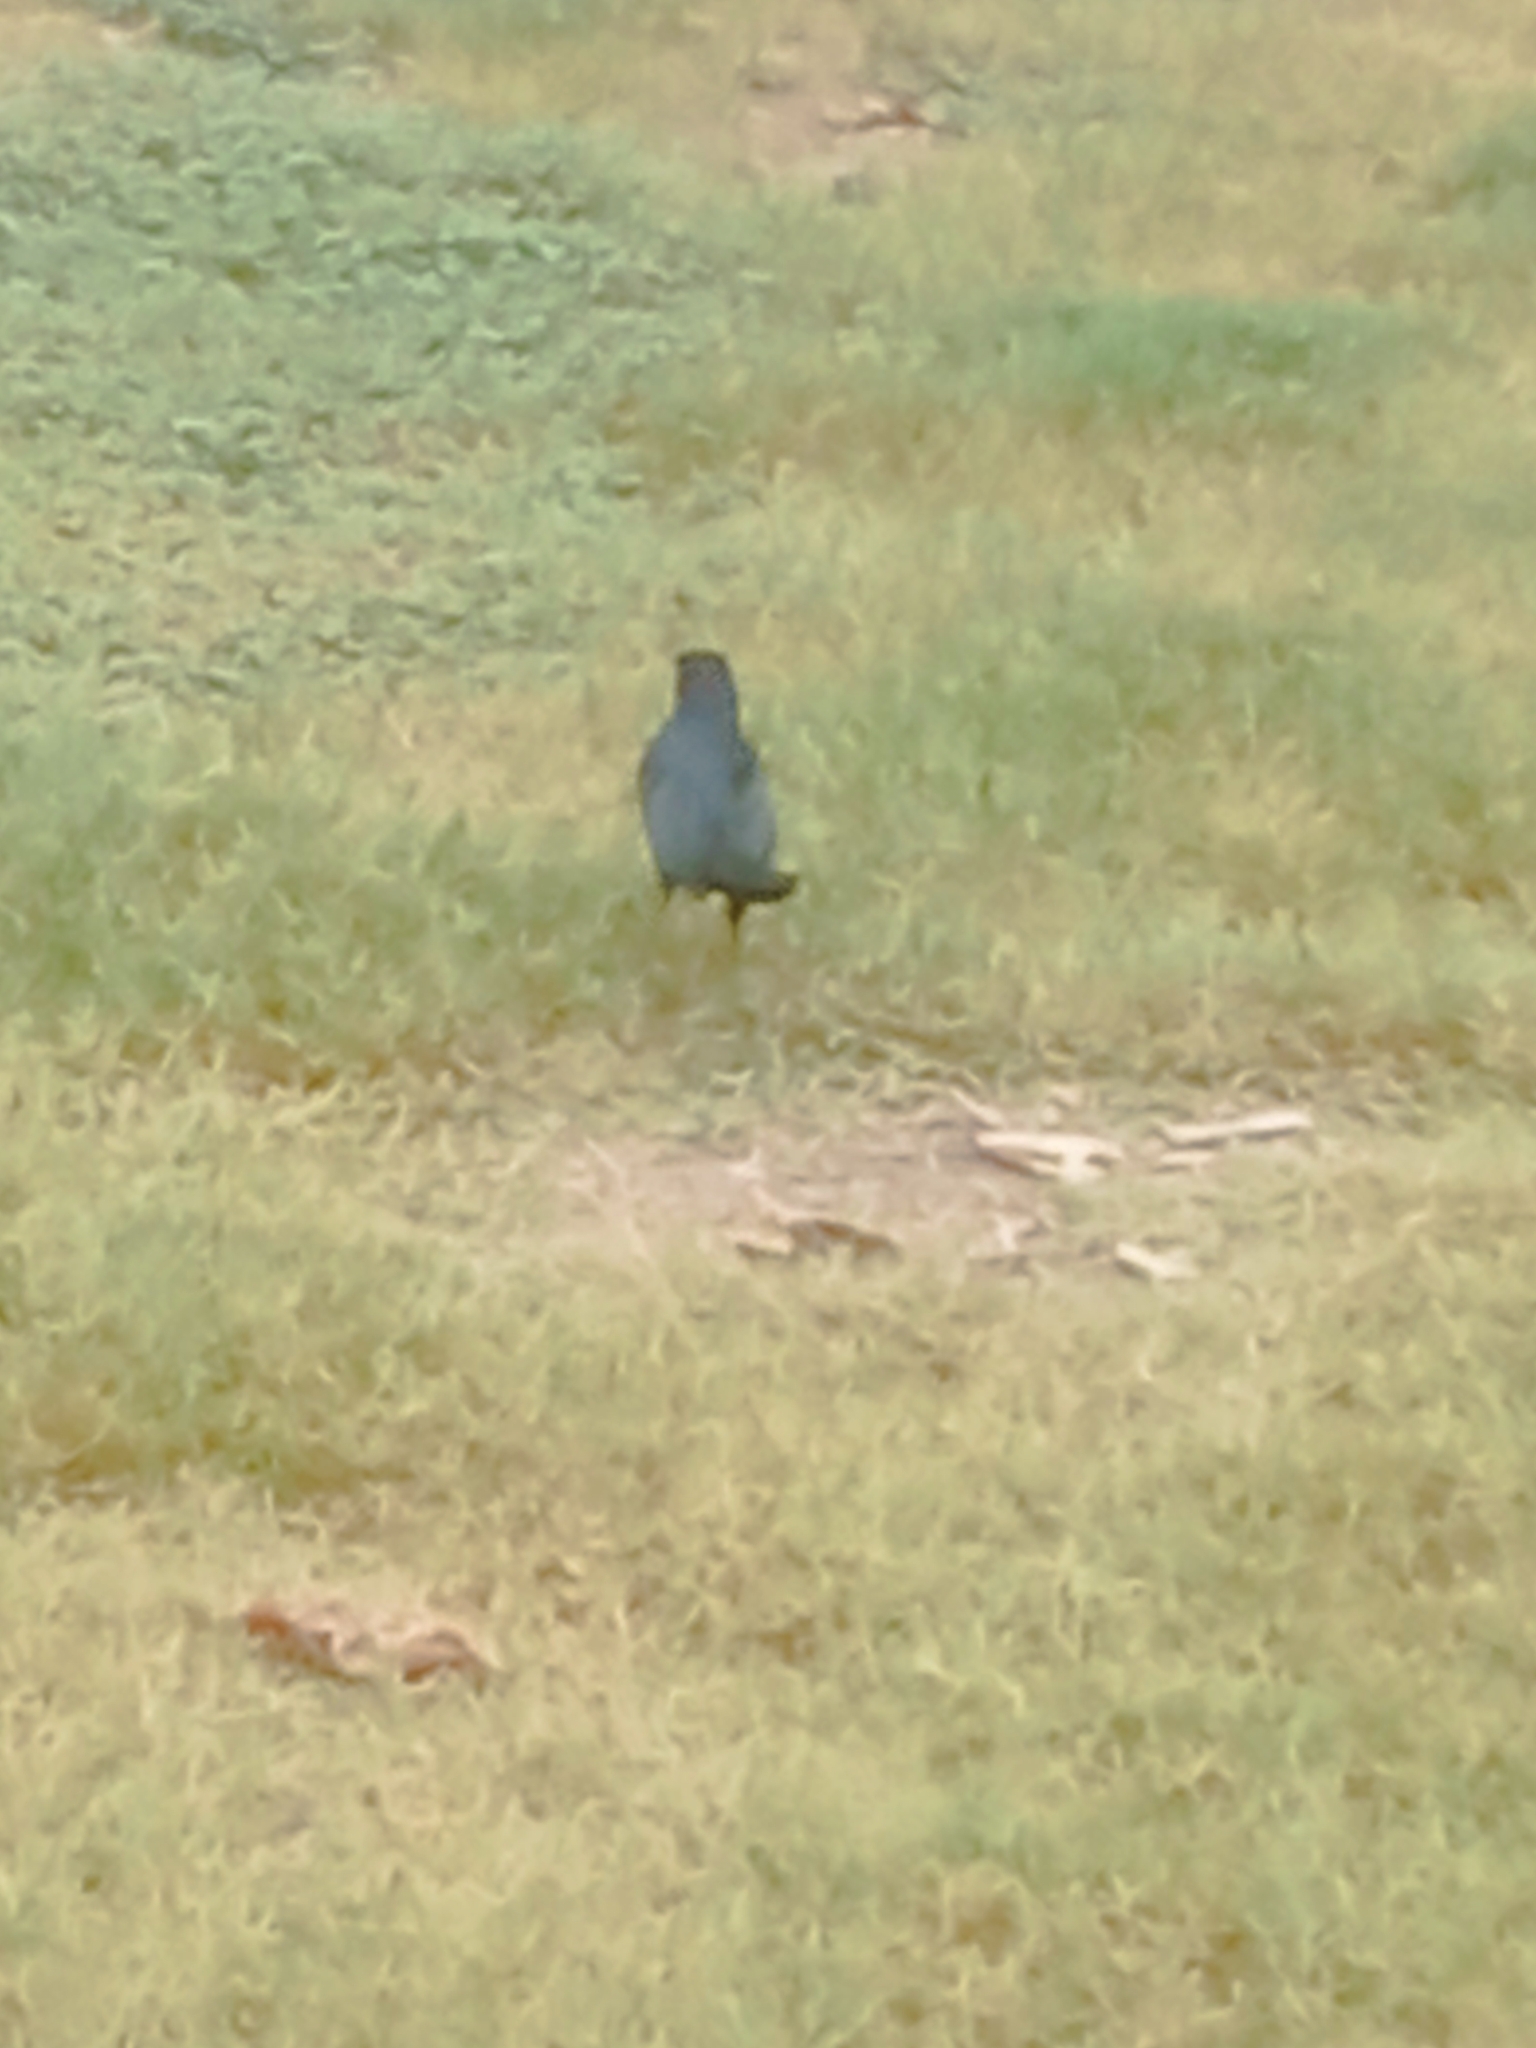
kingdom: Animalia
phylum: Chordata
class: Aves
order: Passeriformes
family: Icteridae
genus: Quiscalus
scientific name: Quiscalus mexicanus
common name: Great-tailed grackle
